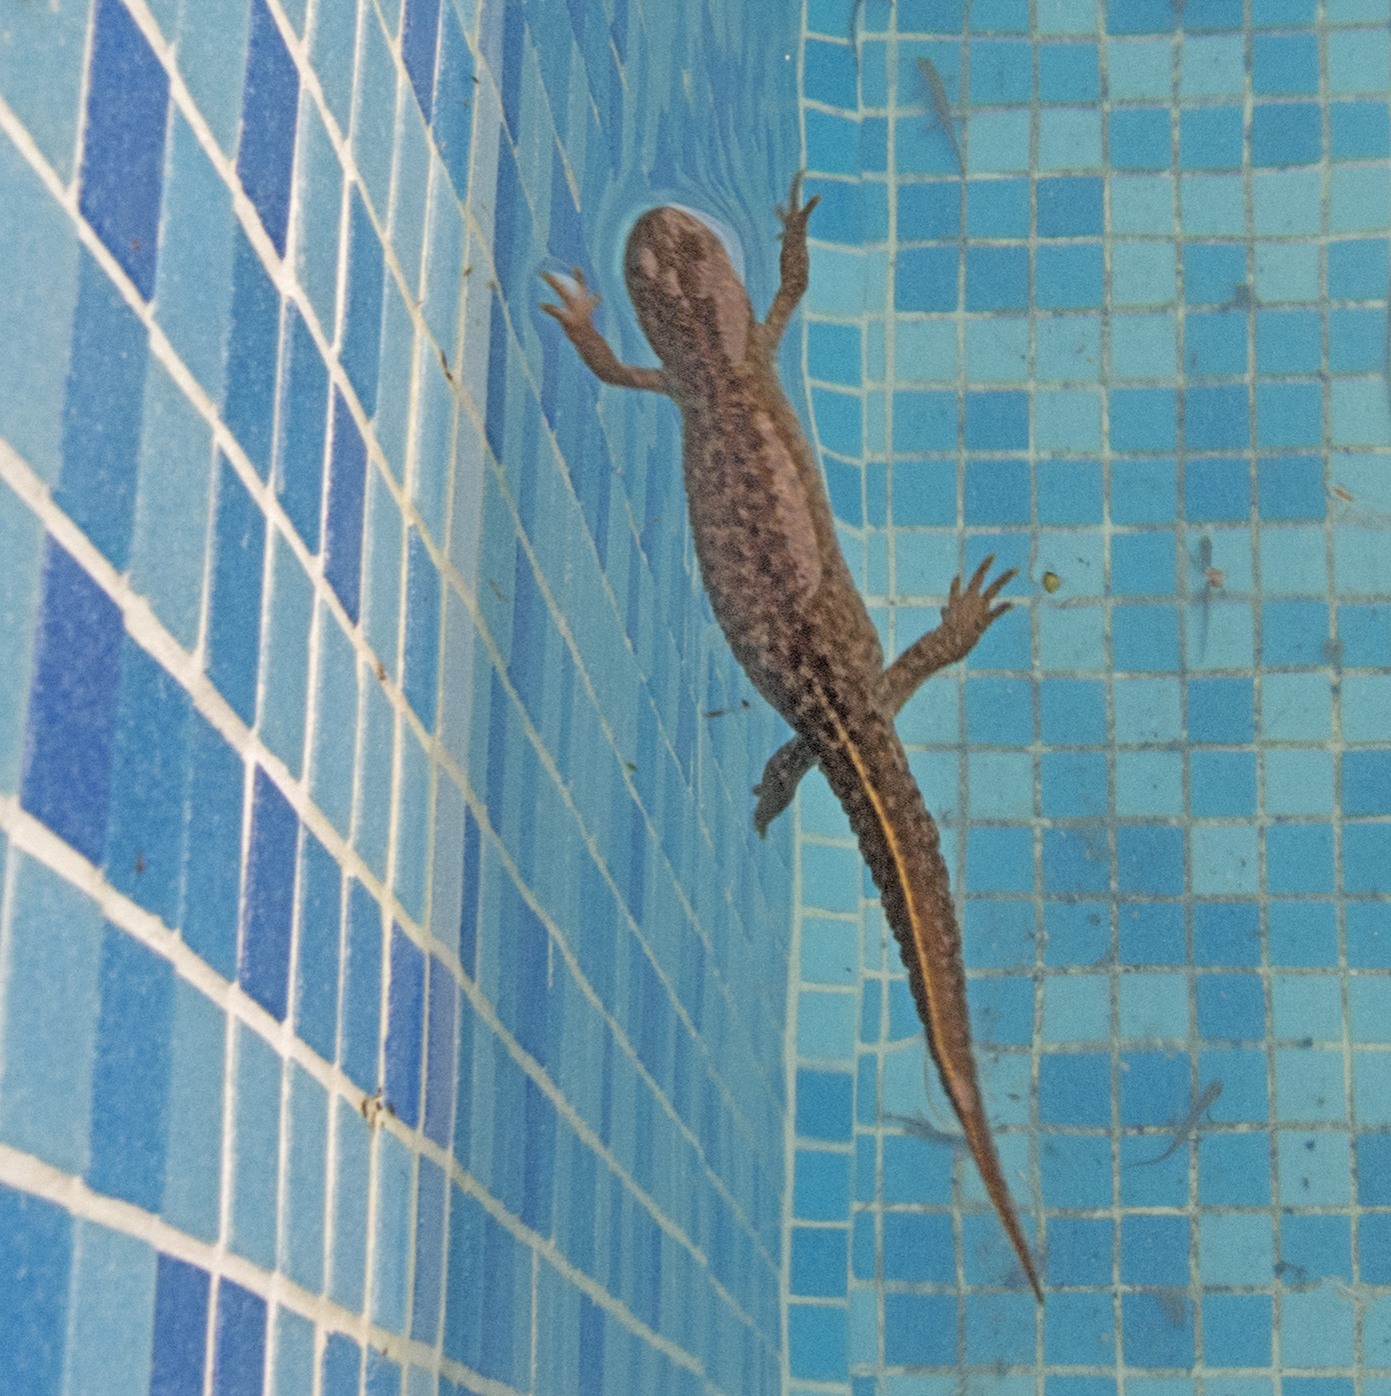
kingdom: Animalia
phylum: Chordata
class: Amphibia
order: Caudata
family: Salamandridae
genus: Triturus
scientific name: Triturus ivanbureschi
